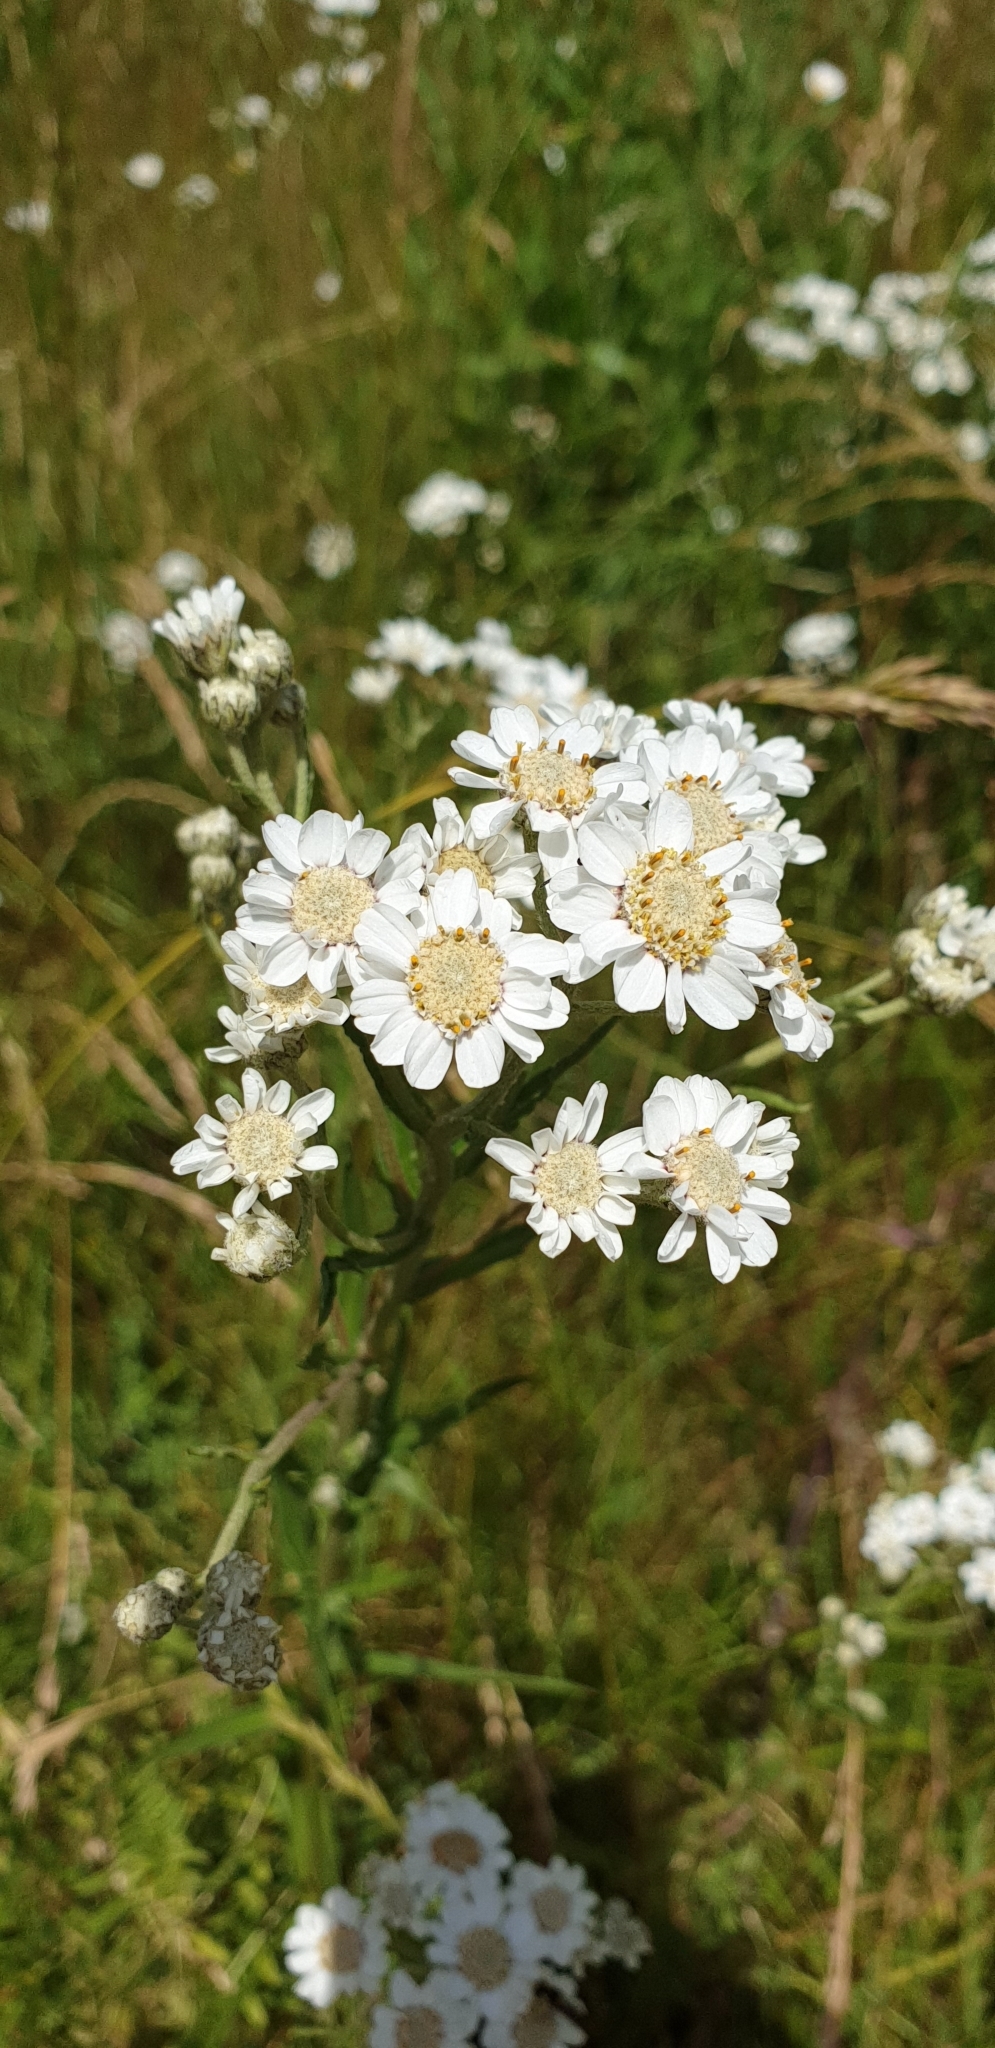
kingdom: Plantae
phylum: Tracheophyta
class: Magnoliopsida
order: Asterales
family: Asteraceae
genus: Achillea
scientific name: Achillea ptarmica
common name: Sneezeweed
